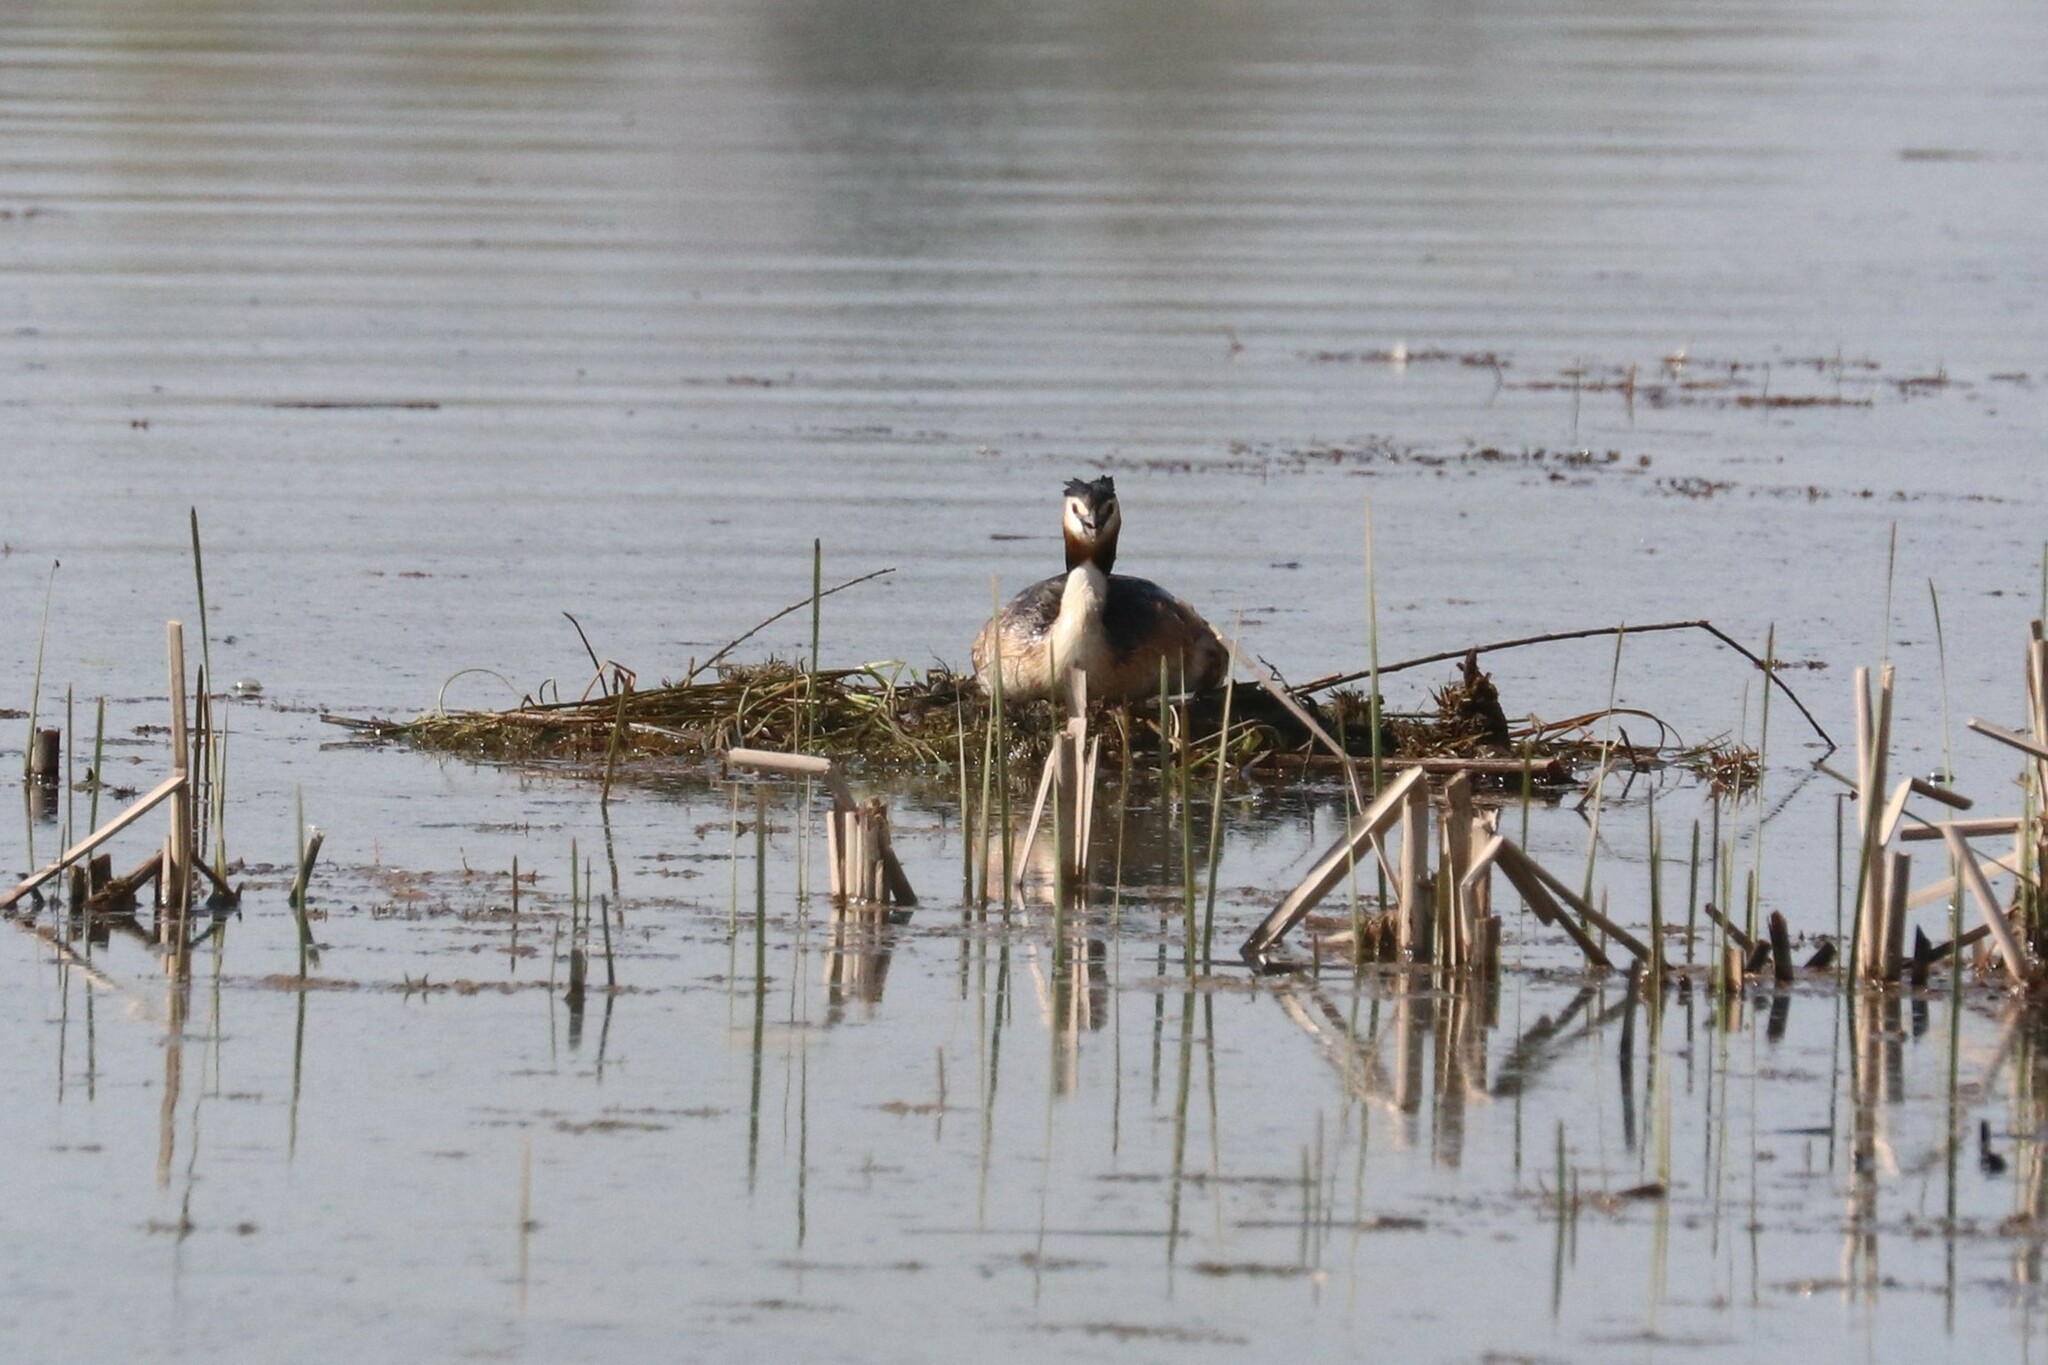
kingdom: Animalia
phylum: Chordata
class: Aves
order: Podicipediformes
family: Podicipedidae
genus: Podiceps
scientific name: Podiceps cristatus
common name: Great crested grebe
